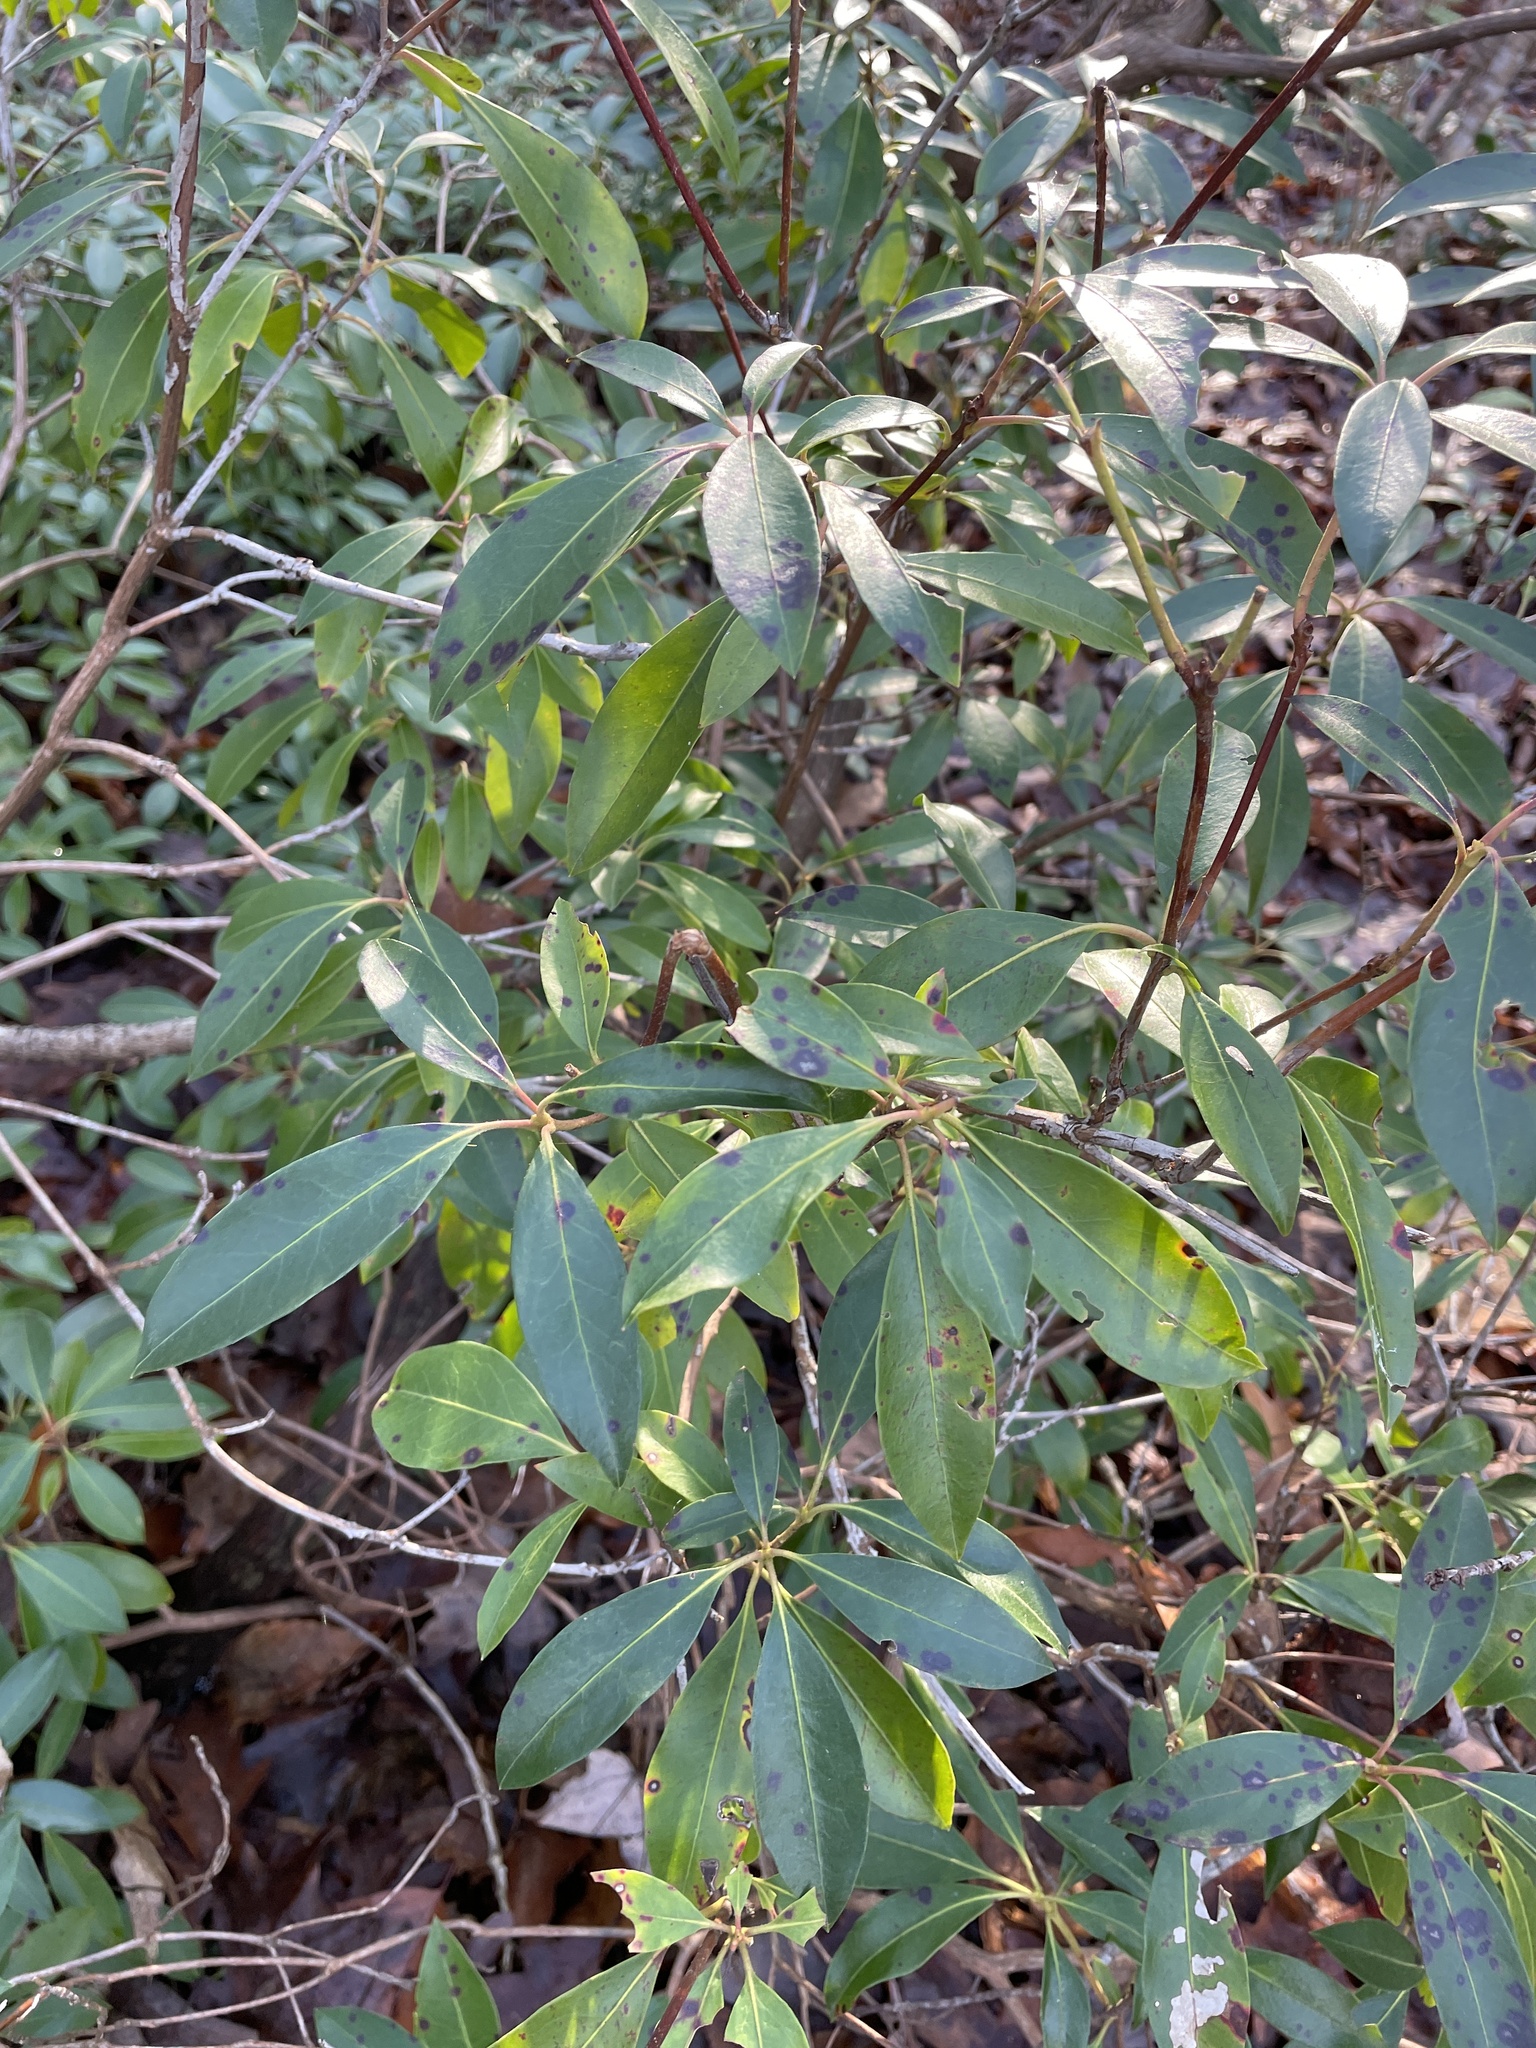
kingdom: Plantae
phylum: Tracheophyta
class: Magnoliopsida
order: Ericales
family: Ericaceae
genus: Kalmia
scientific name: Kalmia latifolia
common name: Mountain-laurel
